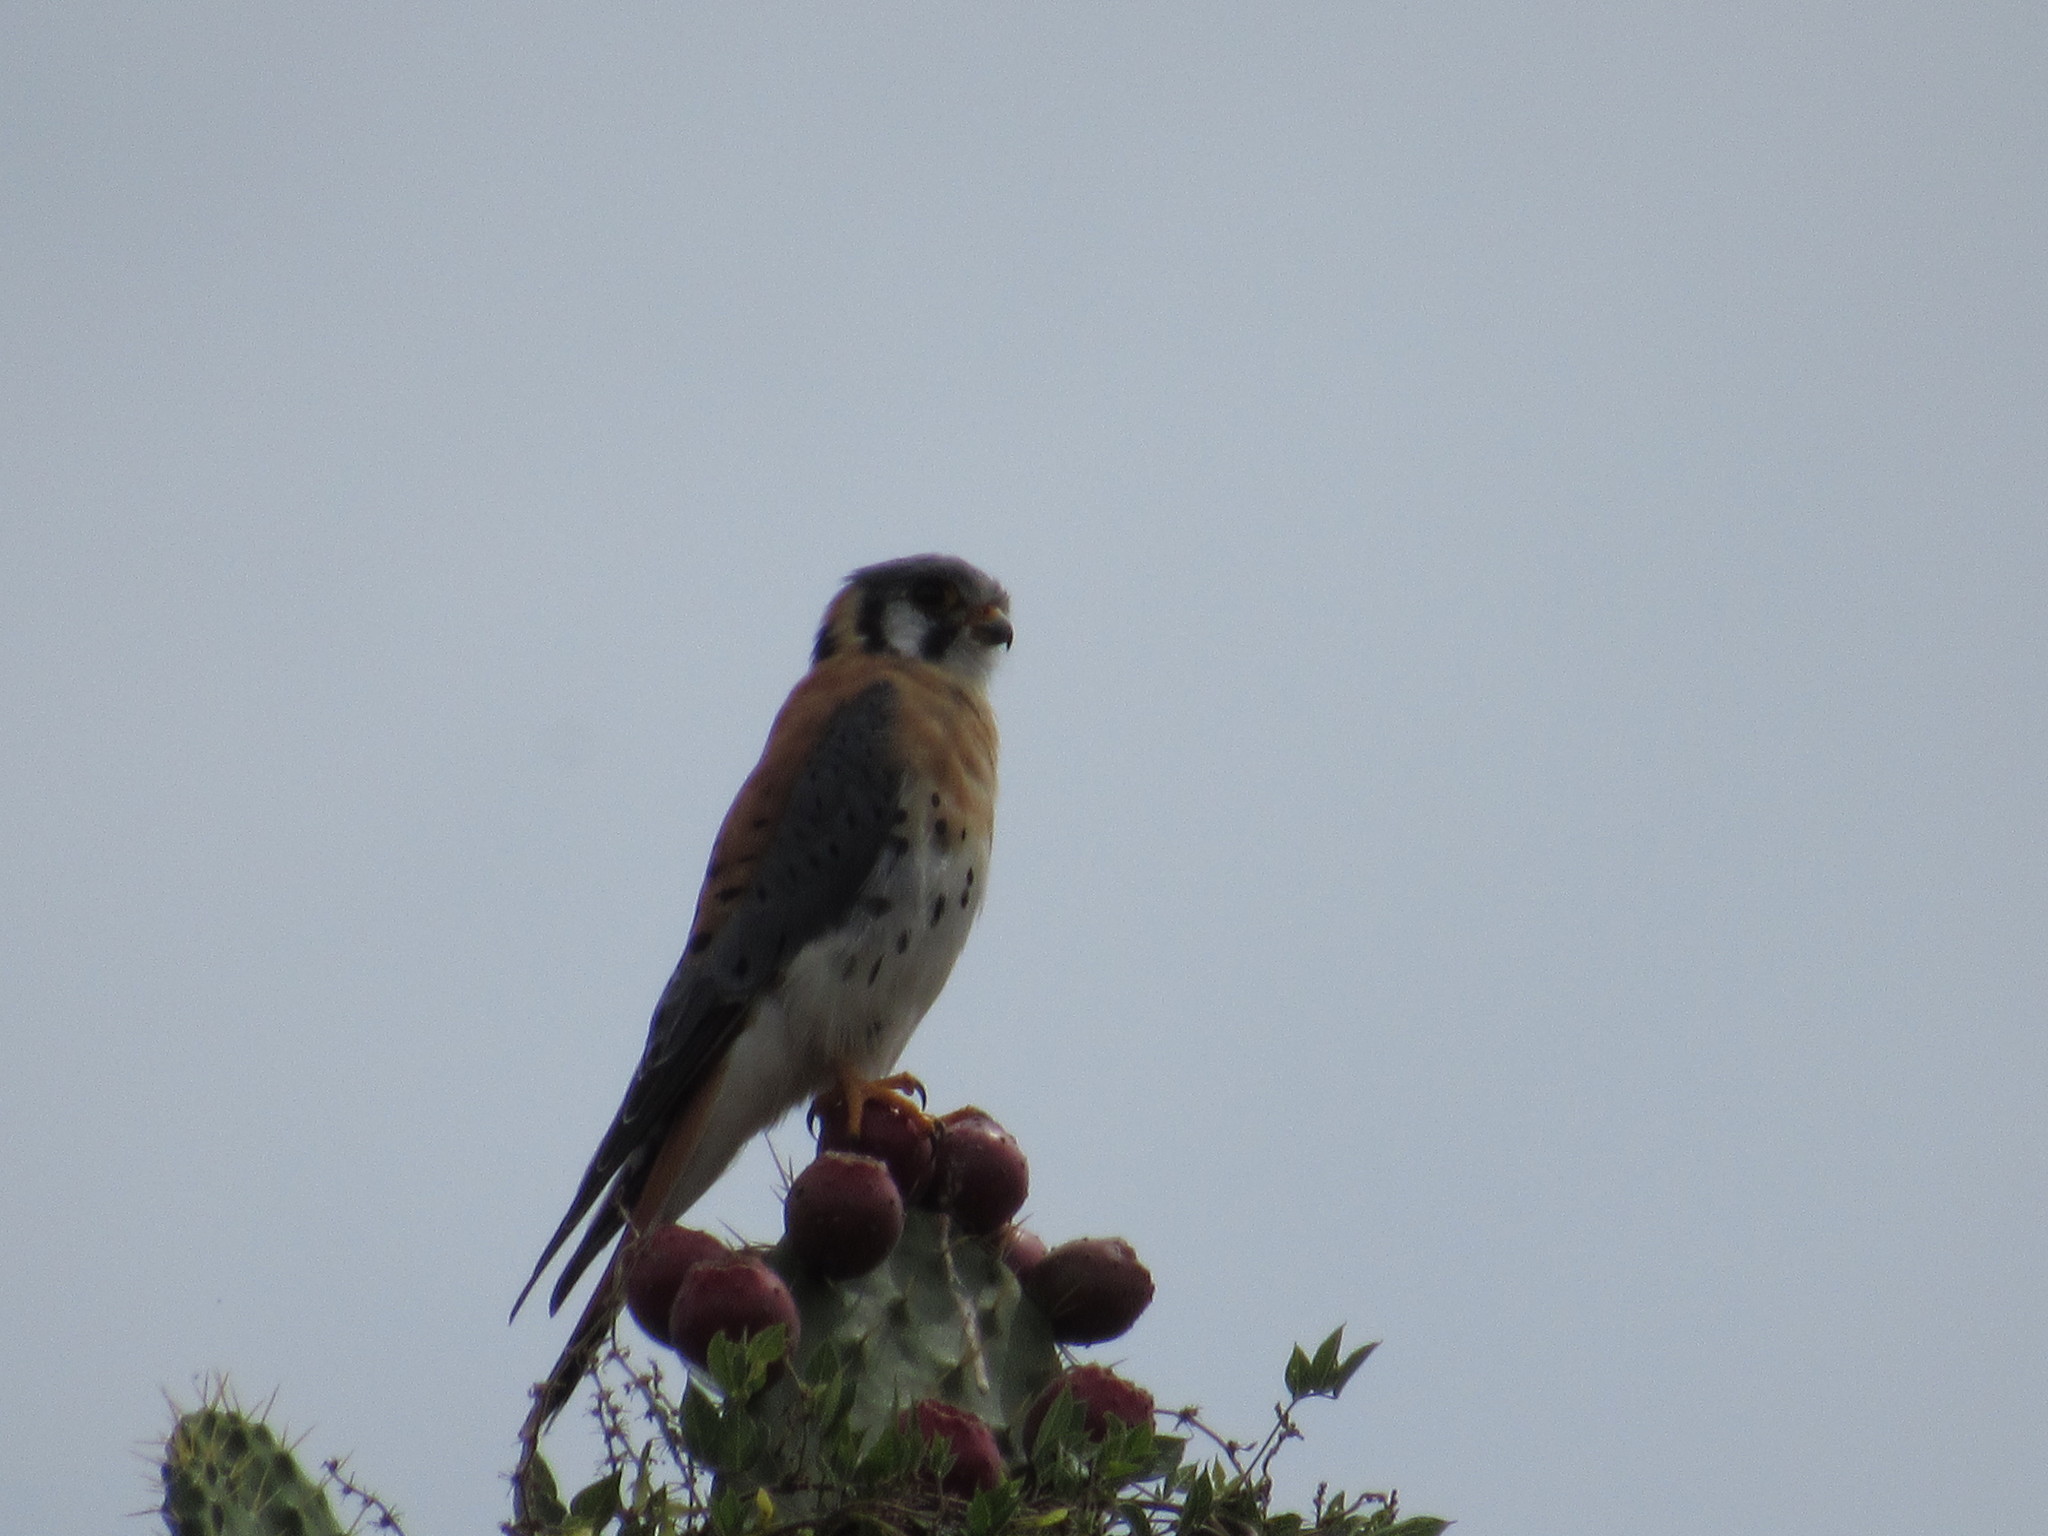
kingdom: Animalia
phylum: Chordata
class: Aves
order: Falconiformes
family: Falconidae
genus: Falco
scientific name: Falco sparverius
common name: American kestrel
